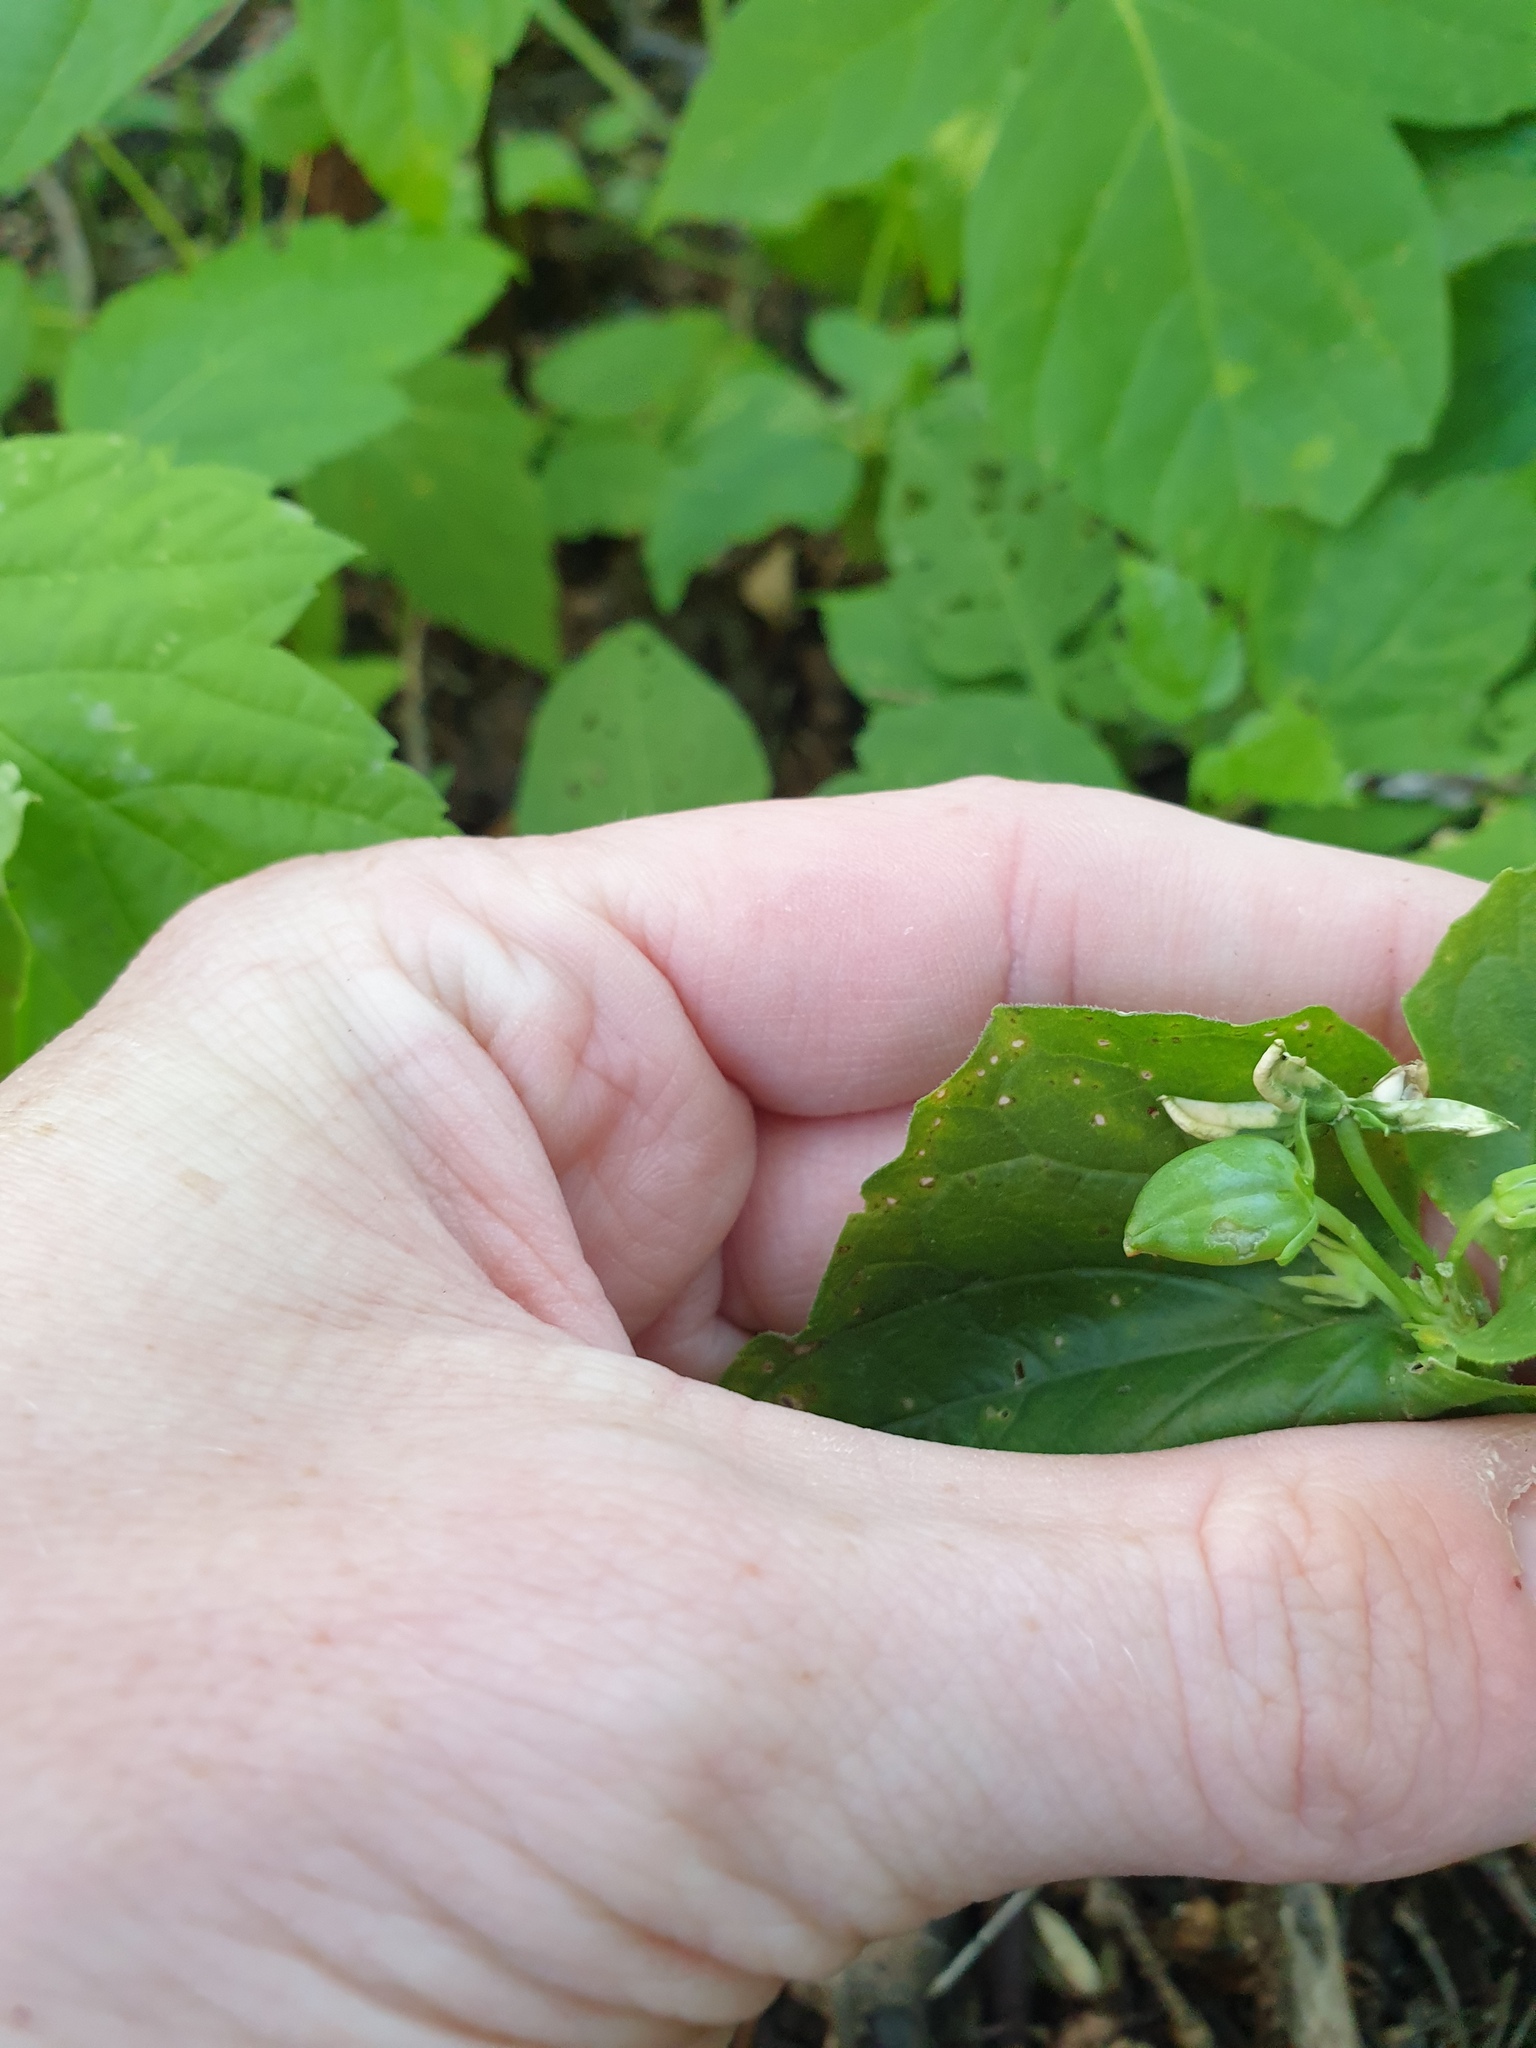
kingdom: Plantae
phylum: Tracheophyta
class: Magnoliopsida
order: Malpighiales
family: Violaceae
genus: Viola
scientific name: Viola eriocarpa
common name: Smooth yellow violet
